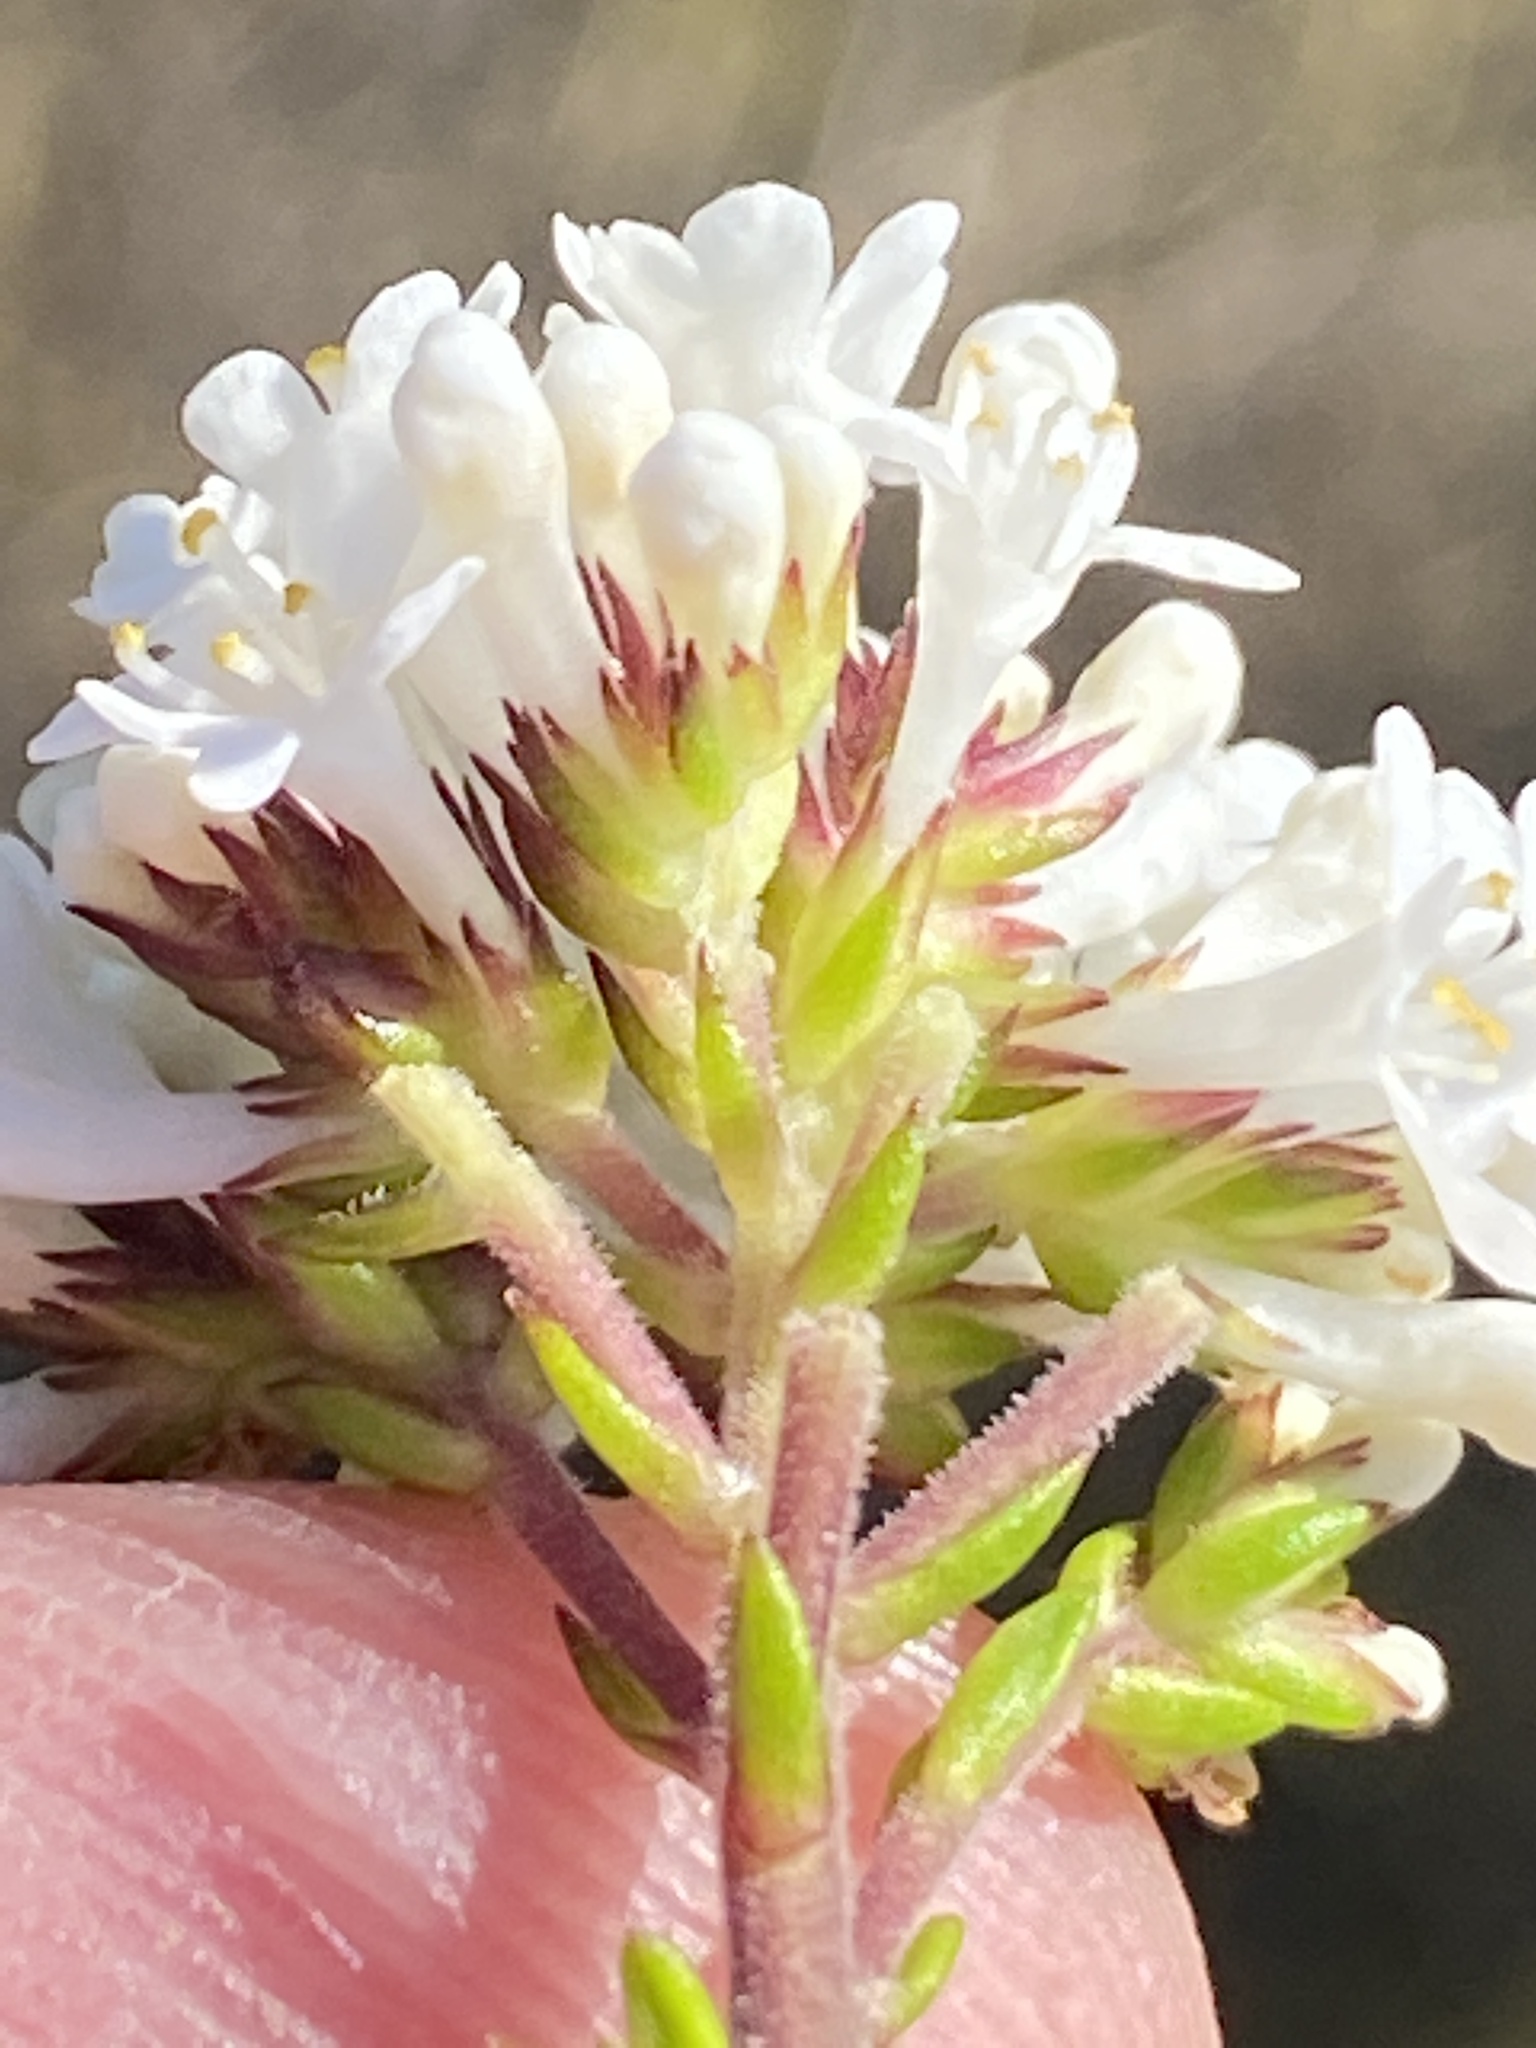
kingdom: Plantae
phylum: Tracheophyta
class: Magnoliopsida
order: Lamiales
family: Scrophulariaceae
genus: Selago
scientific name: Selago glomerata
